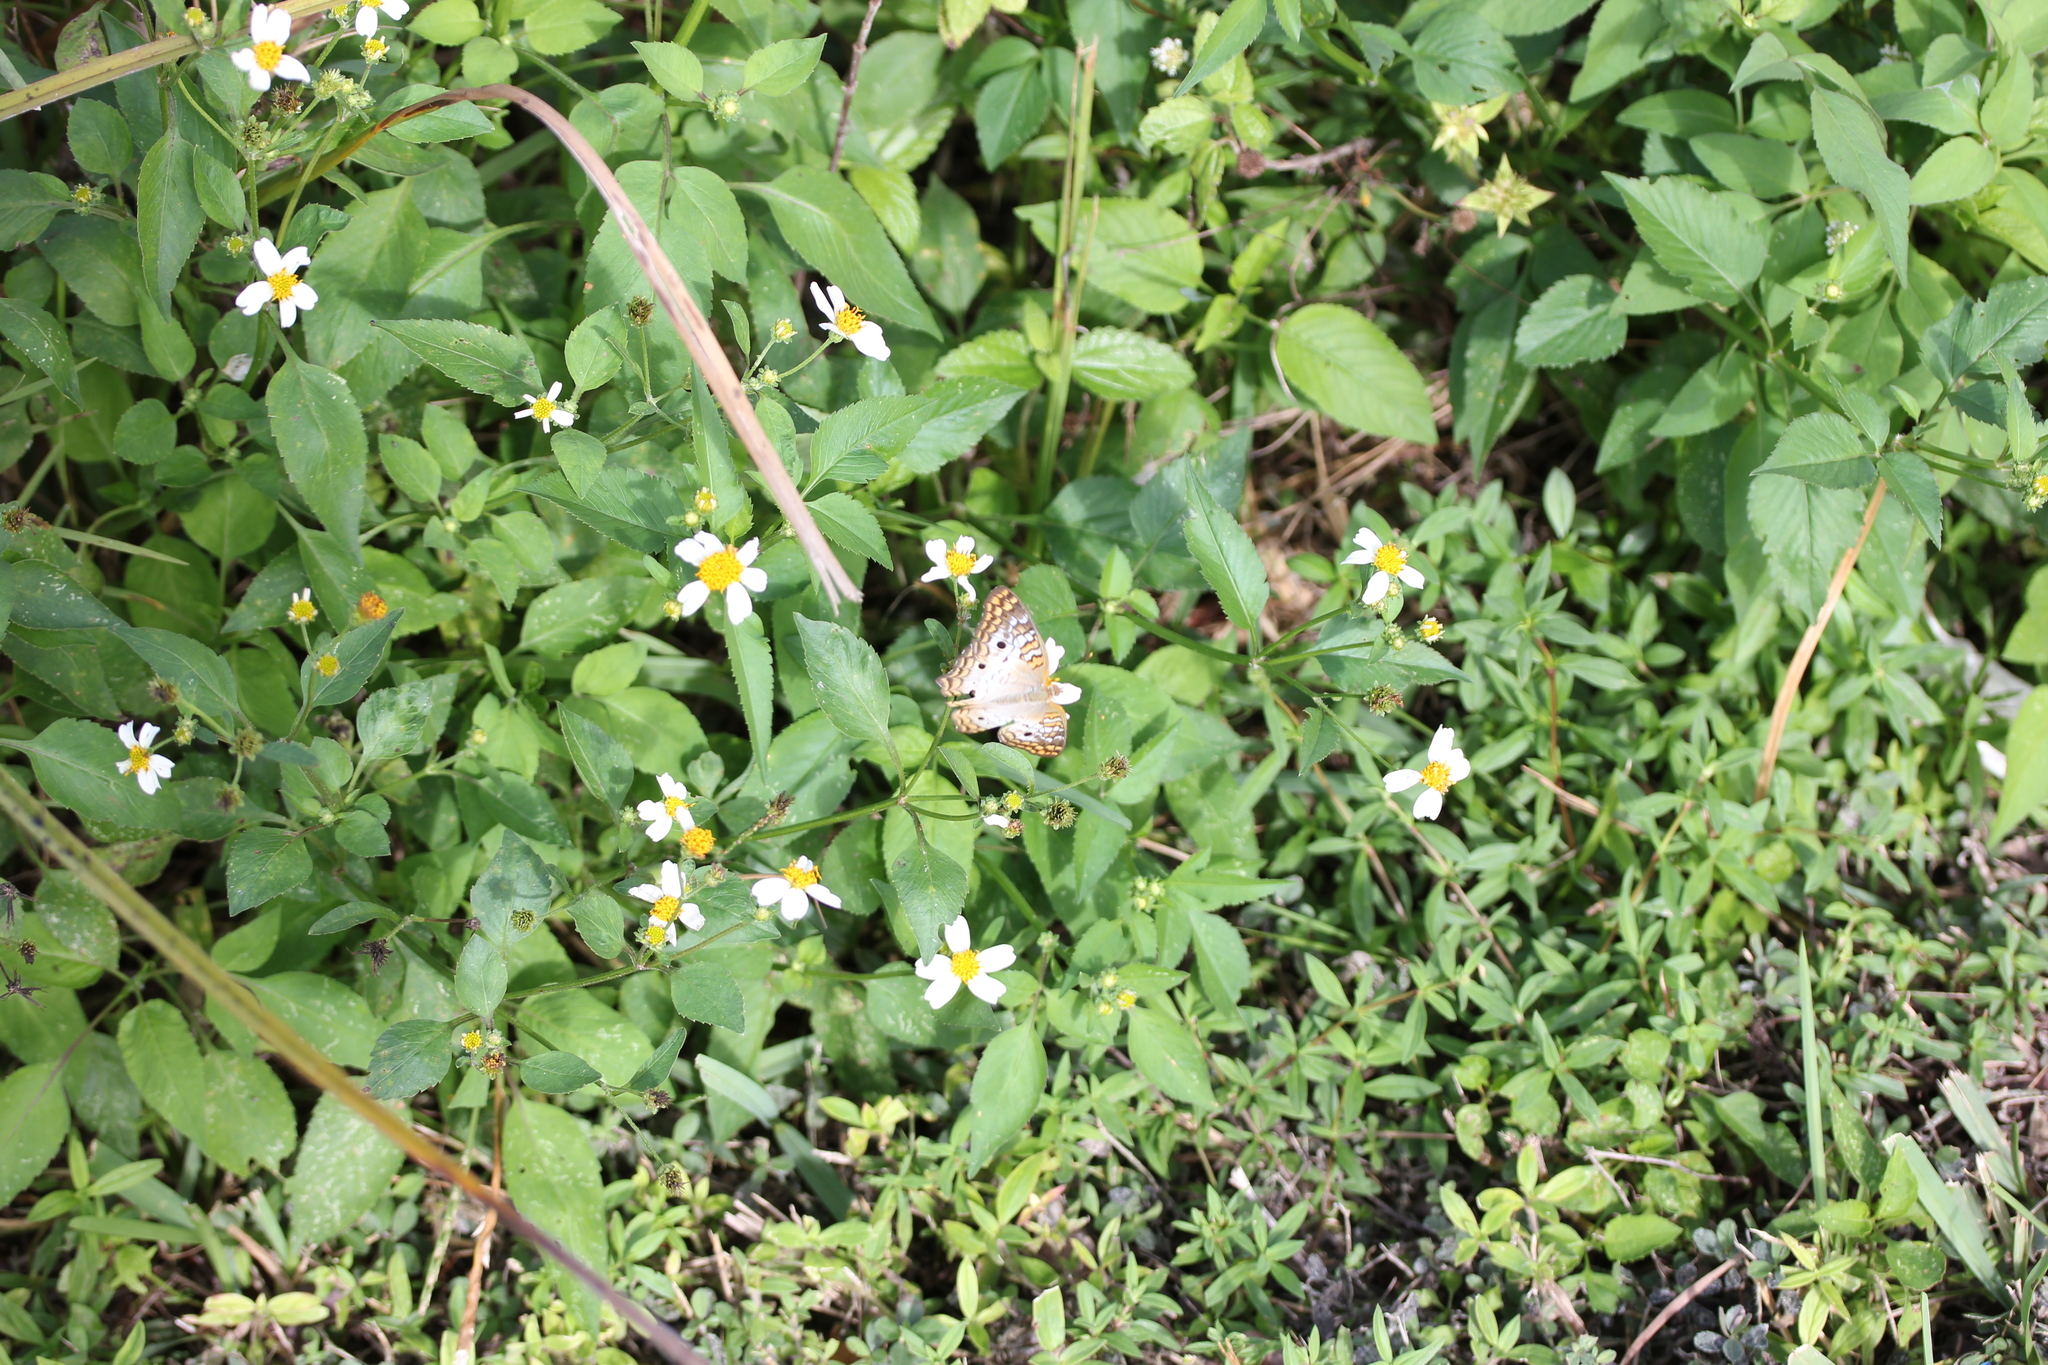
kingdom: Plantae
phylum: Tracheophyta
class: Magnoliopsida
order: Asterales
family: Asteraceae
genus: Bidens
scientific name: Bidens alba
